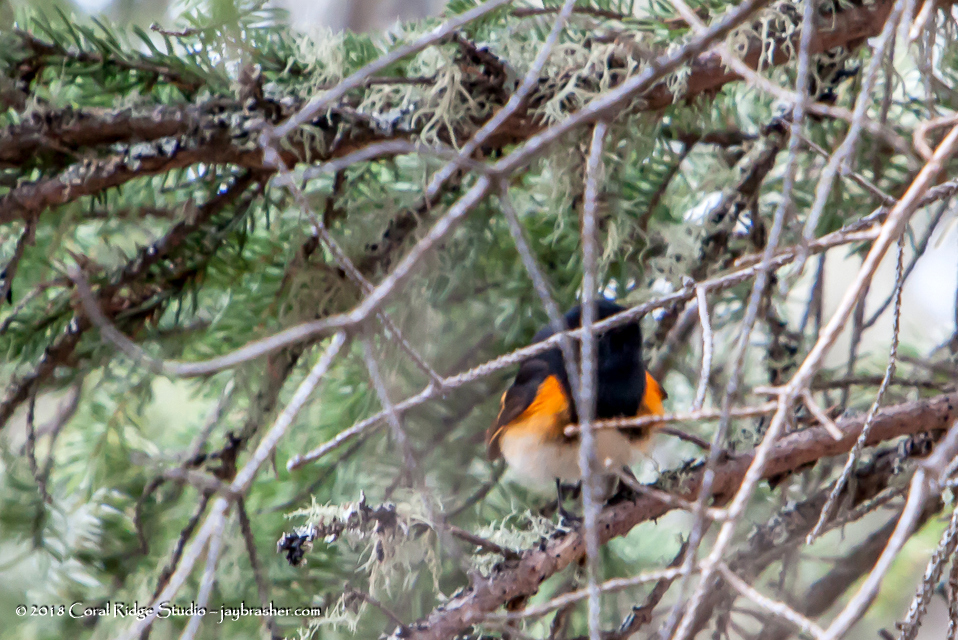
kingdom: Animalia
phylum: Chordata
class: Aves
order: Passeriformes
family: Parulidae
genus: Setophaga
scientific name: Setophaga ruticilla
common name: American redstart
